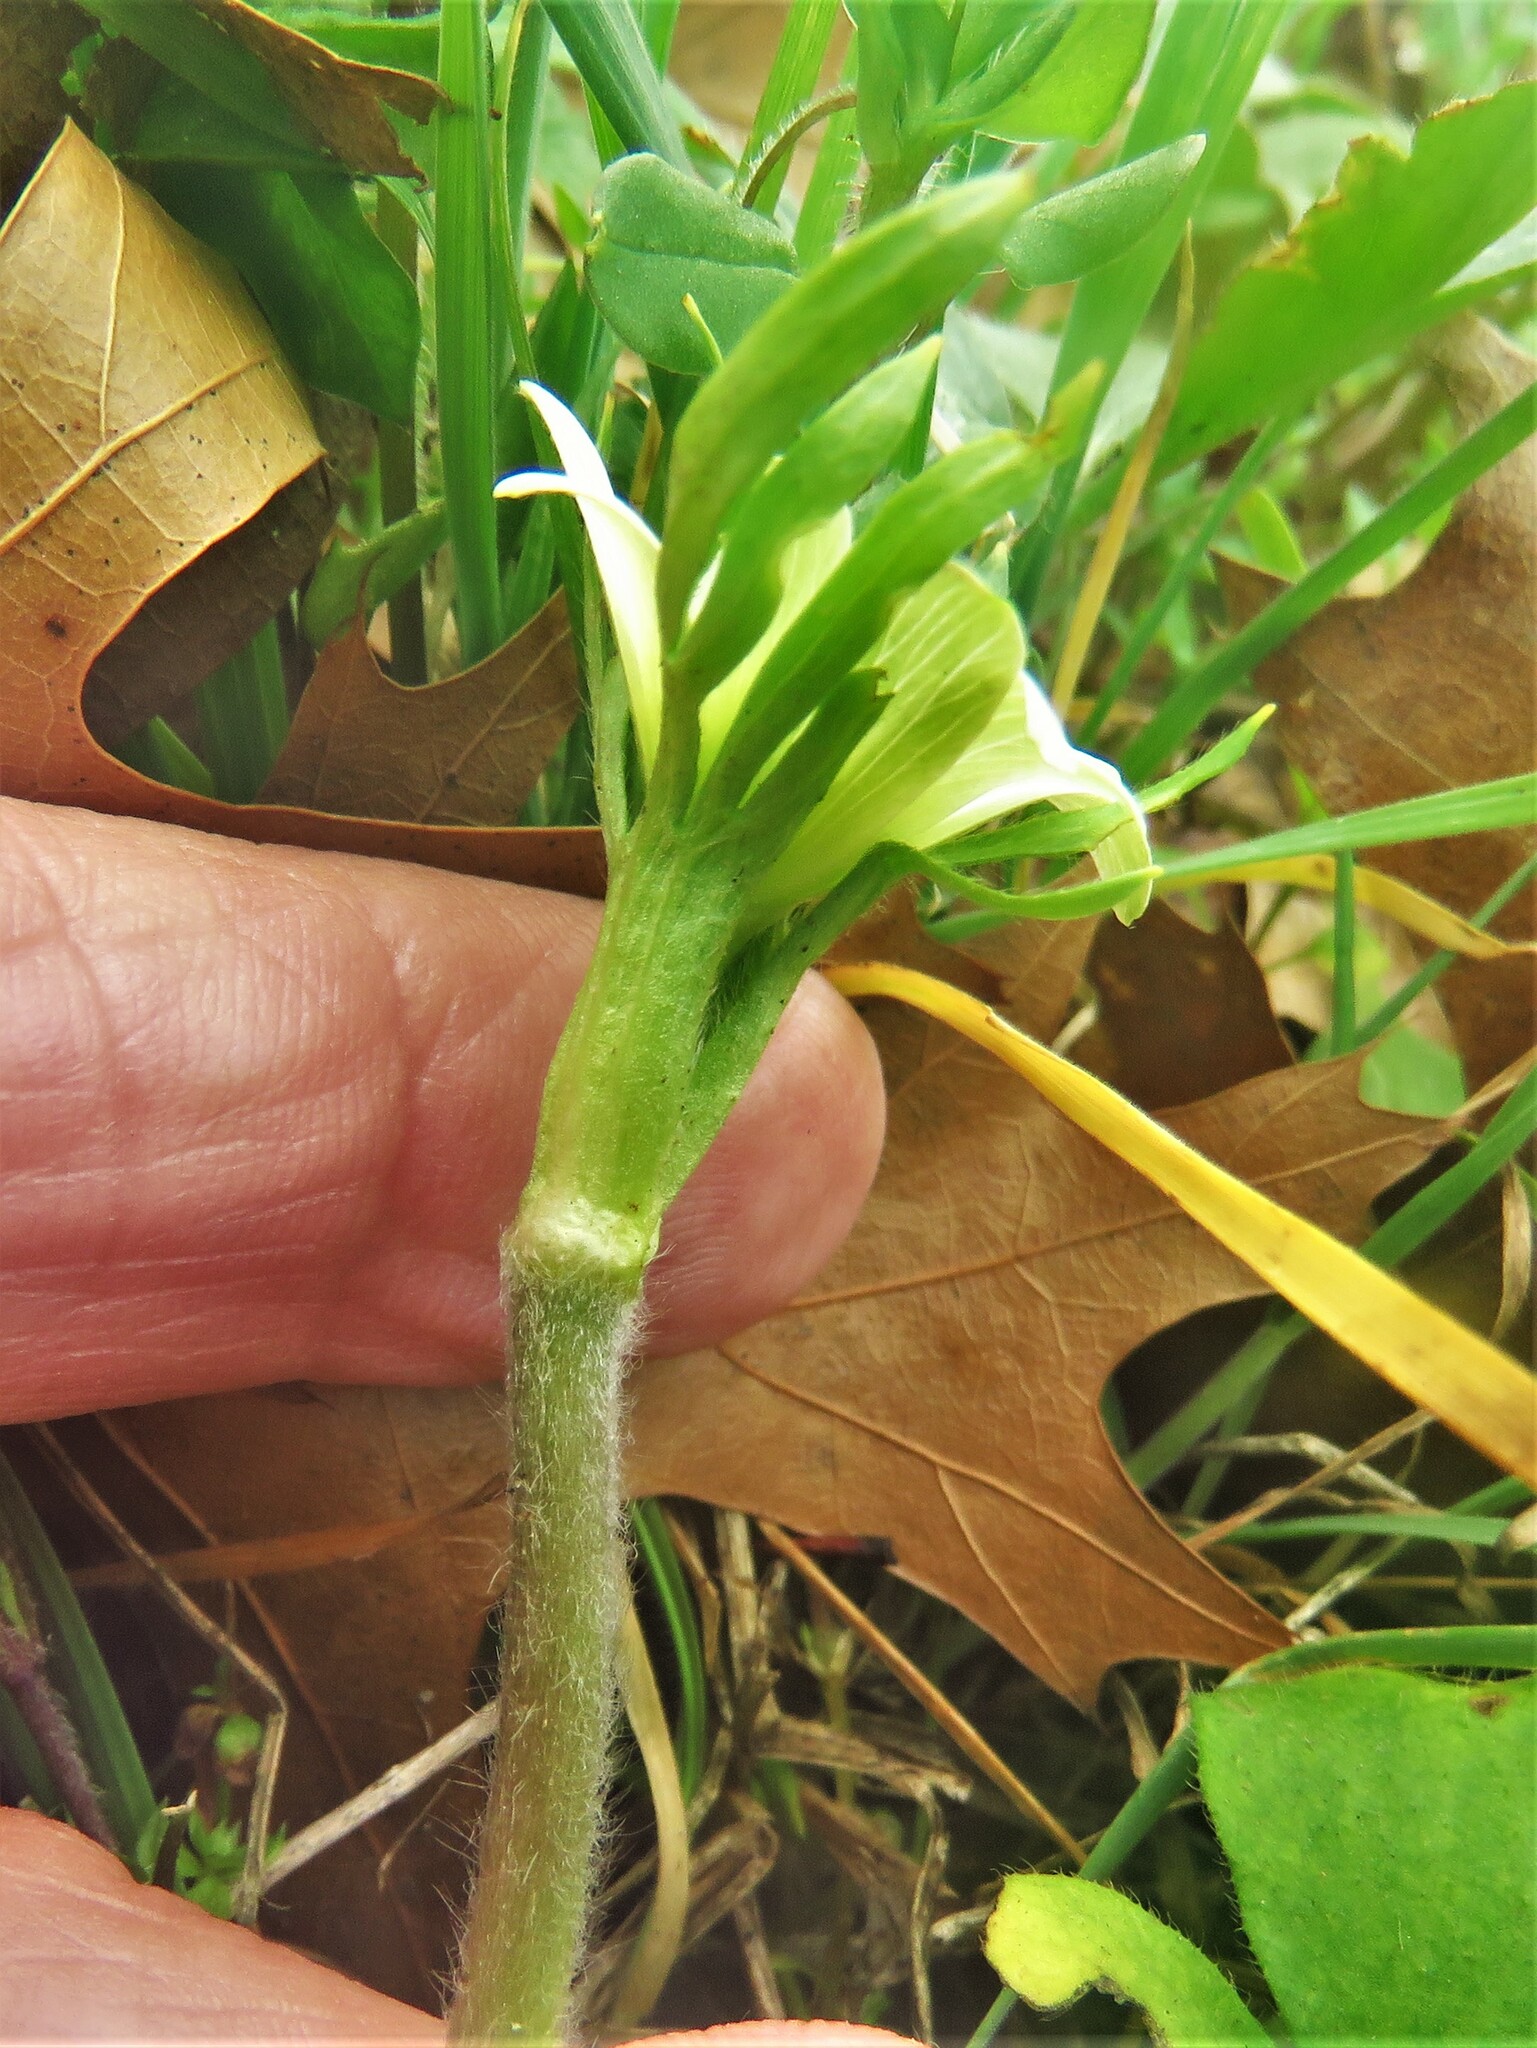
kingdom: Plantae
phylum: Tracheophyta
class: Magnoliopsida
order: Ranunculales
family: Ranunculaceae
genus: Anemone
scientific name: Anemone berlandieri
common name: Ten-petal anemone
